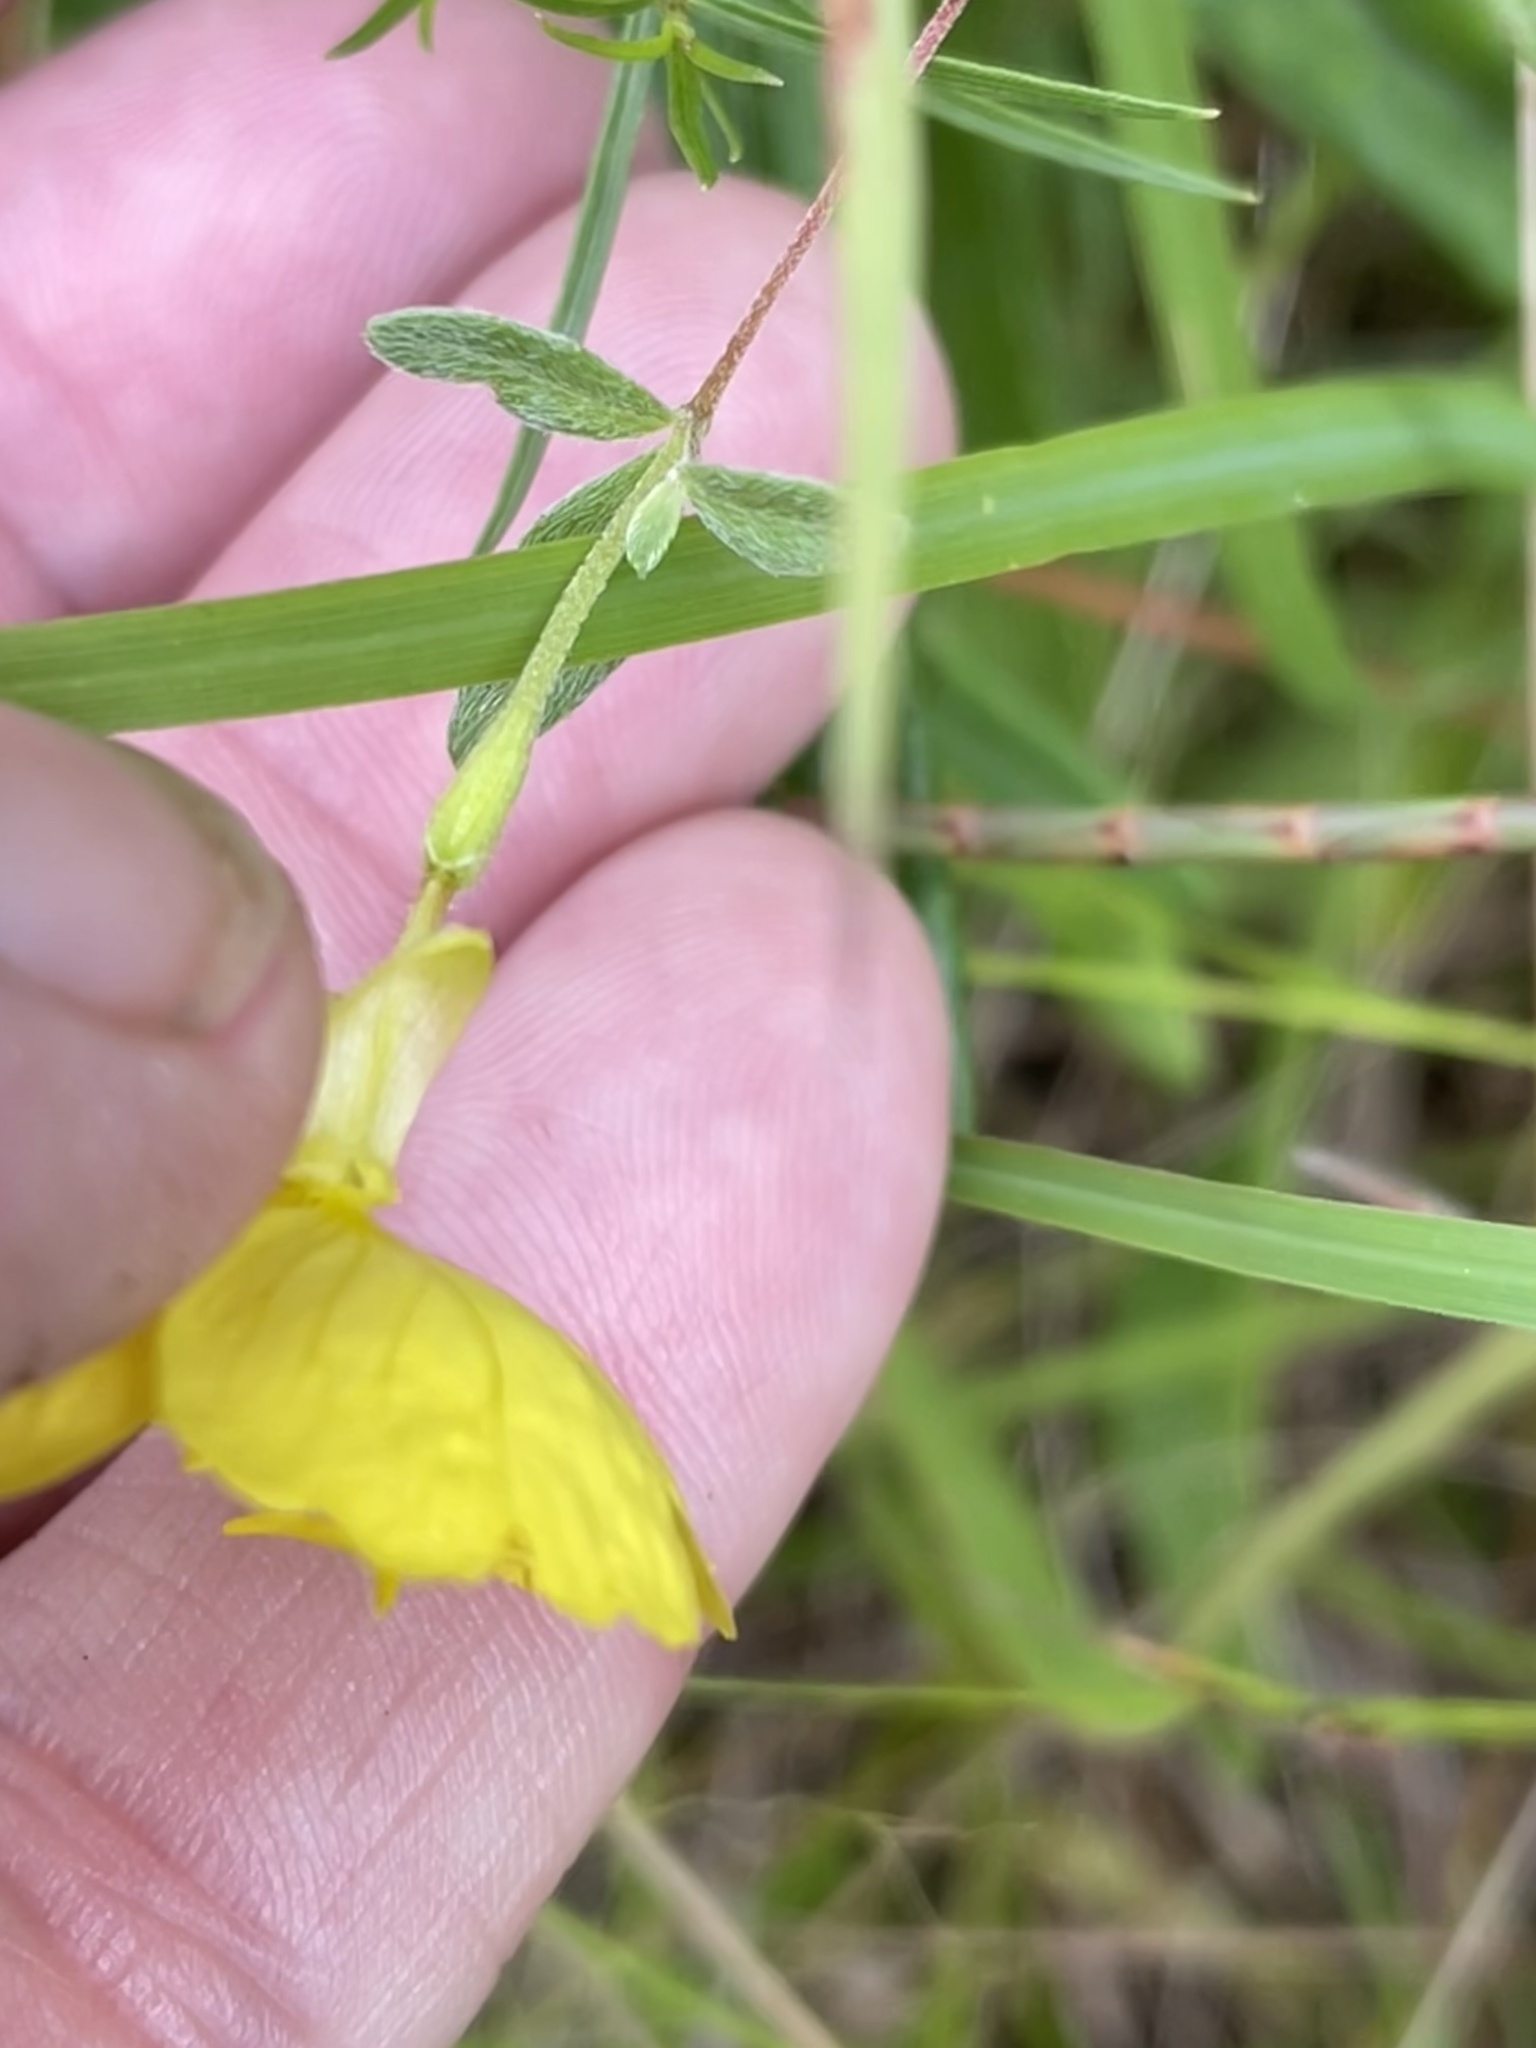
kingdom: Plantae
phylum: Tracheophyta
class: Magnoliopsida
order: Myrtales
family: Onagraceae
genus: Oenothera
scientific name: Oenothera fruticosa
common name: Southern sundrops
